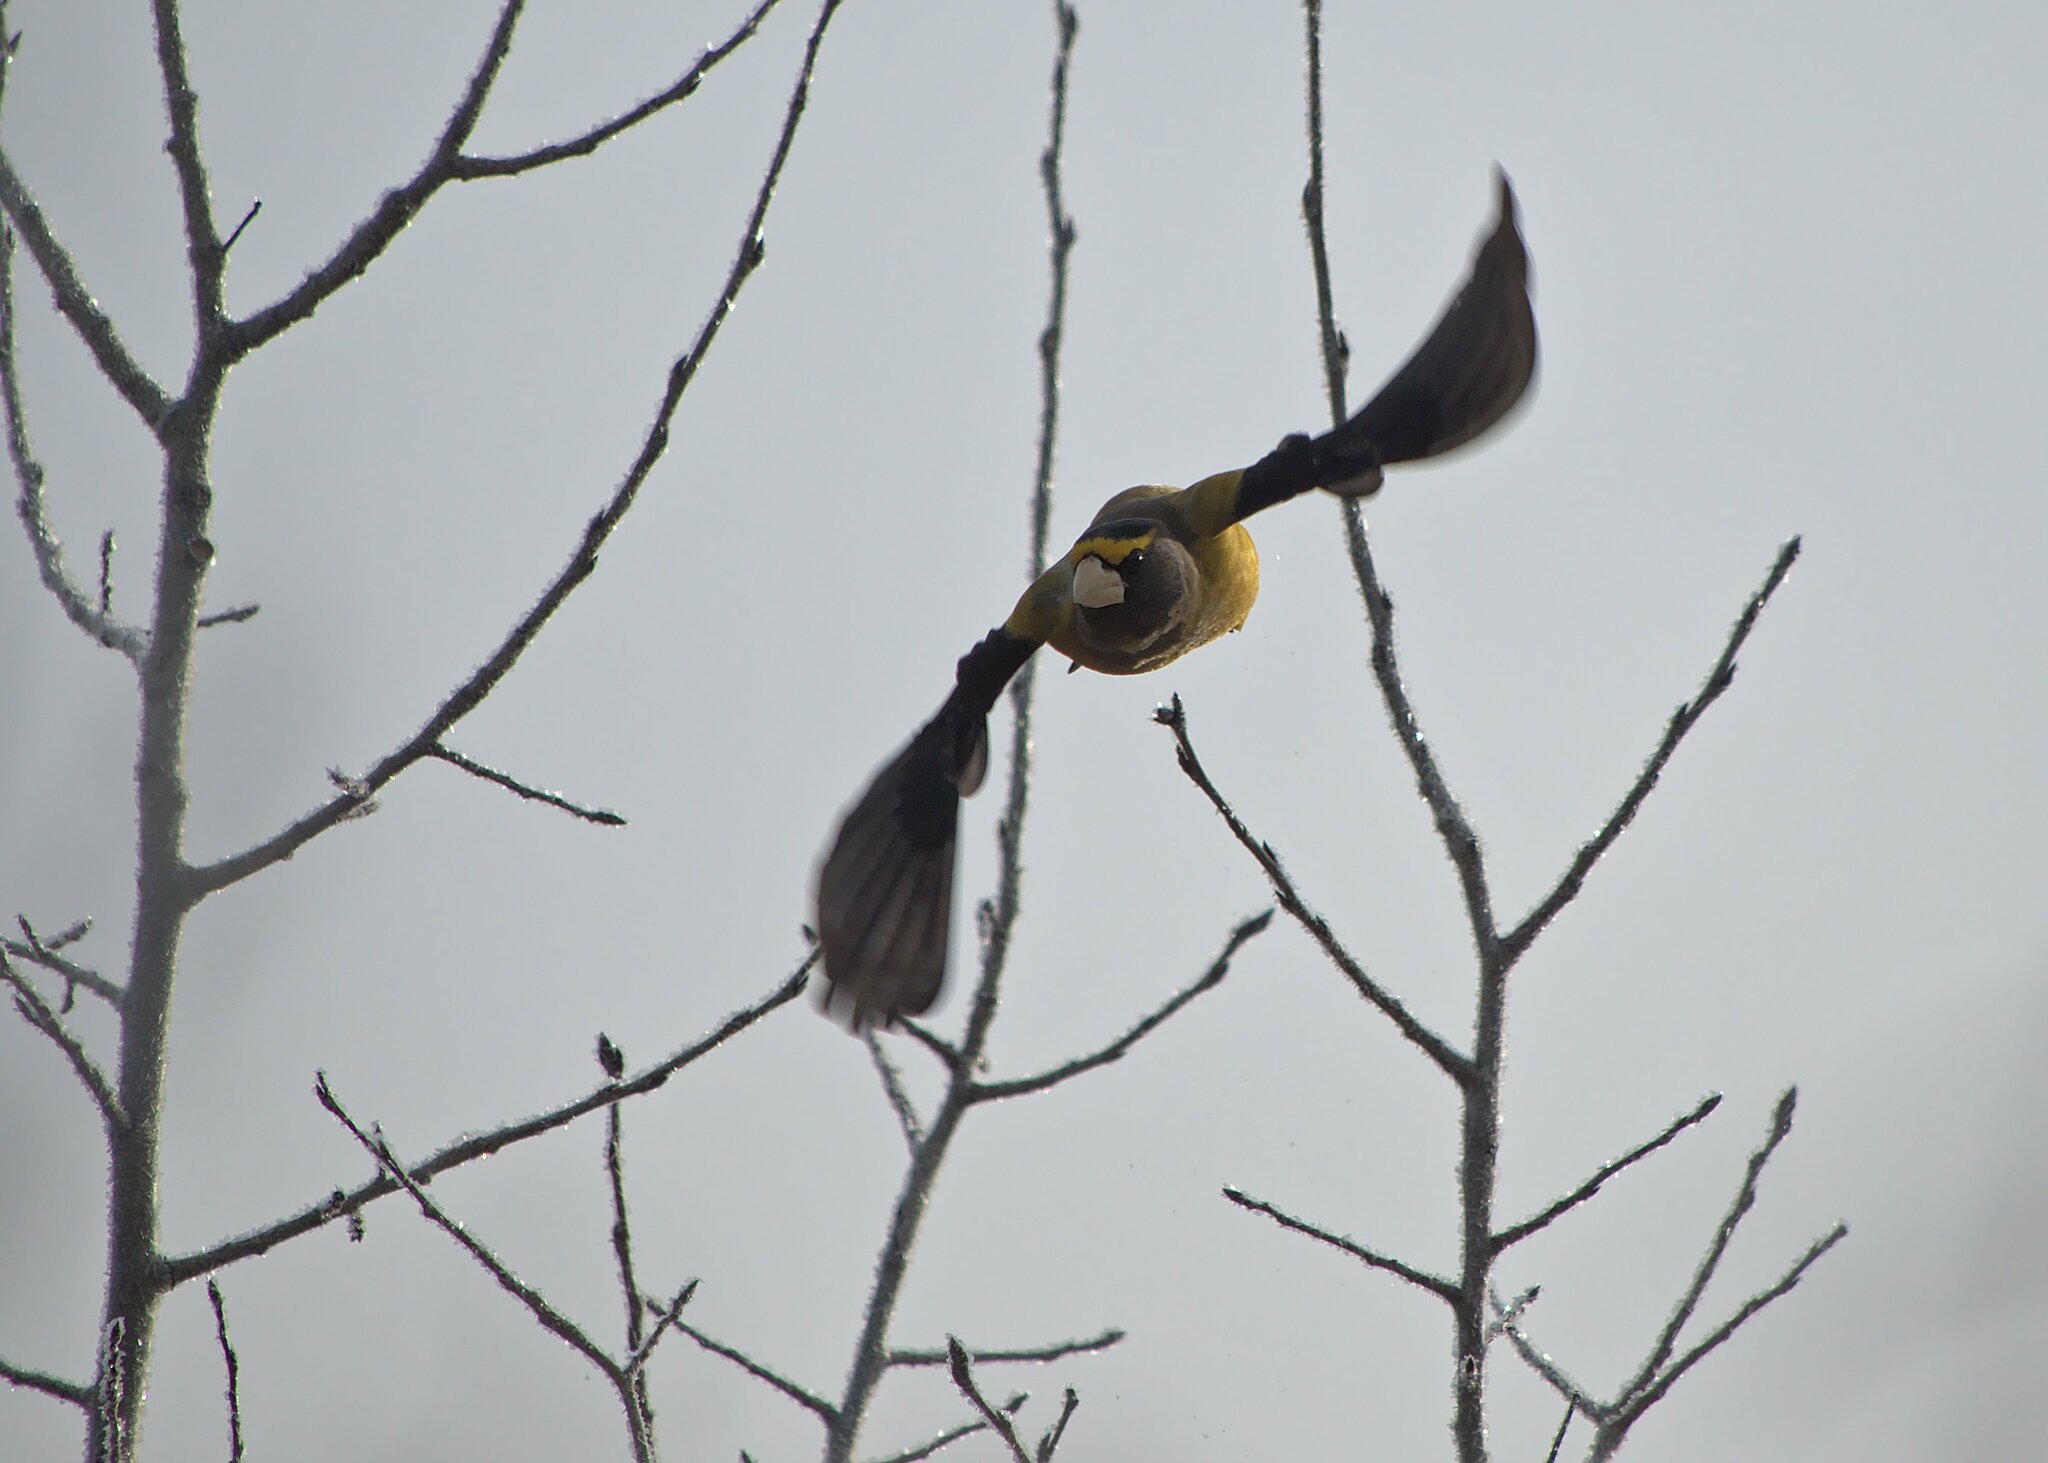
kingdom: Animalia
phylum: Chordata
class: Aves
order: Passeriformes
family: Fringillidae
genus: Hesperiphona
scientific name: Hesperiphona vespertina
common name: Evening grosbeak
